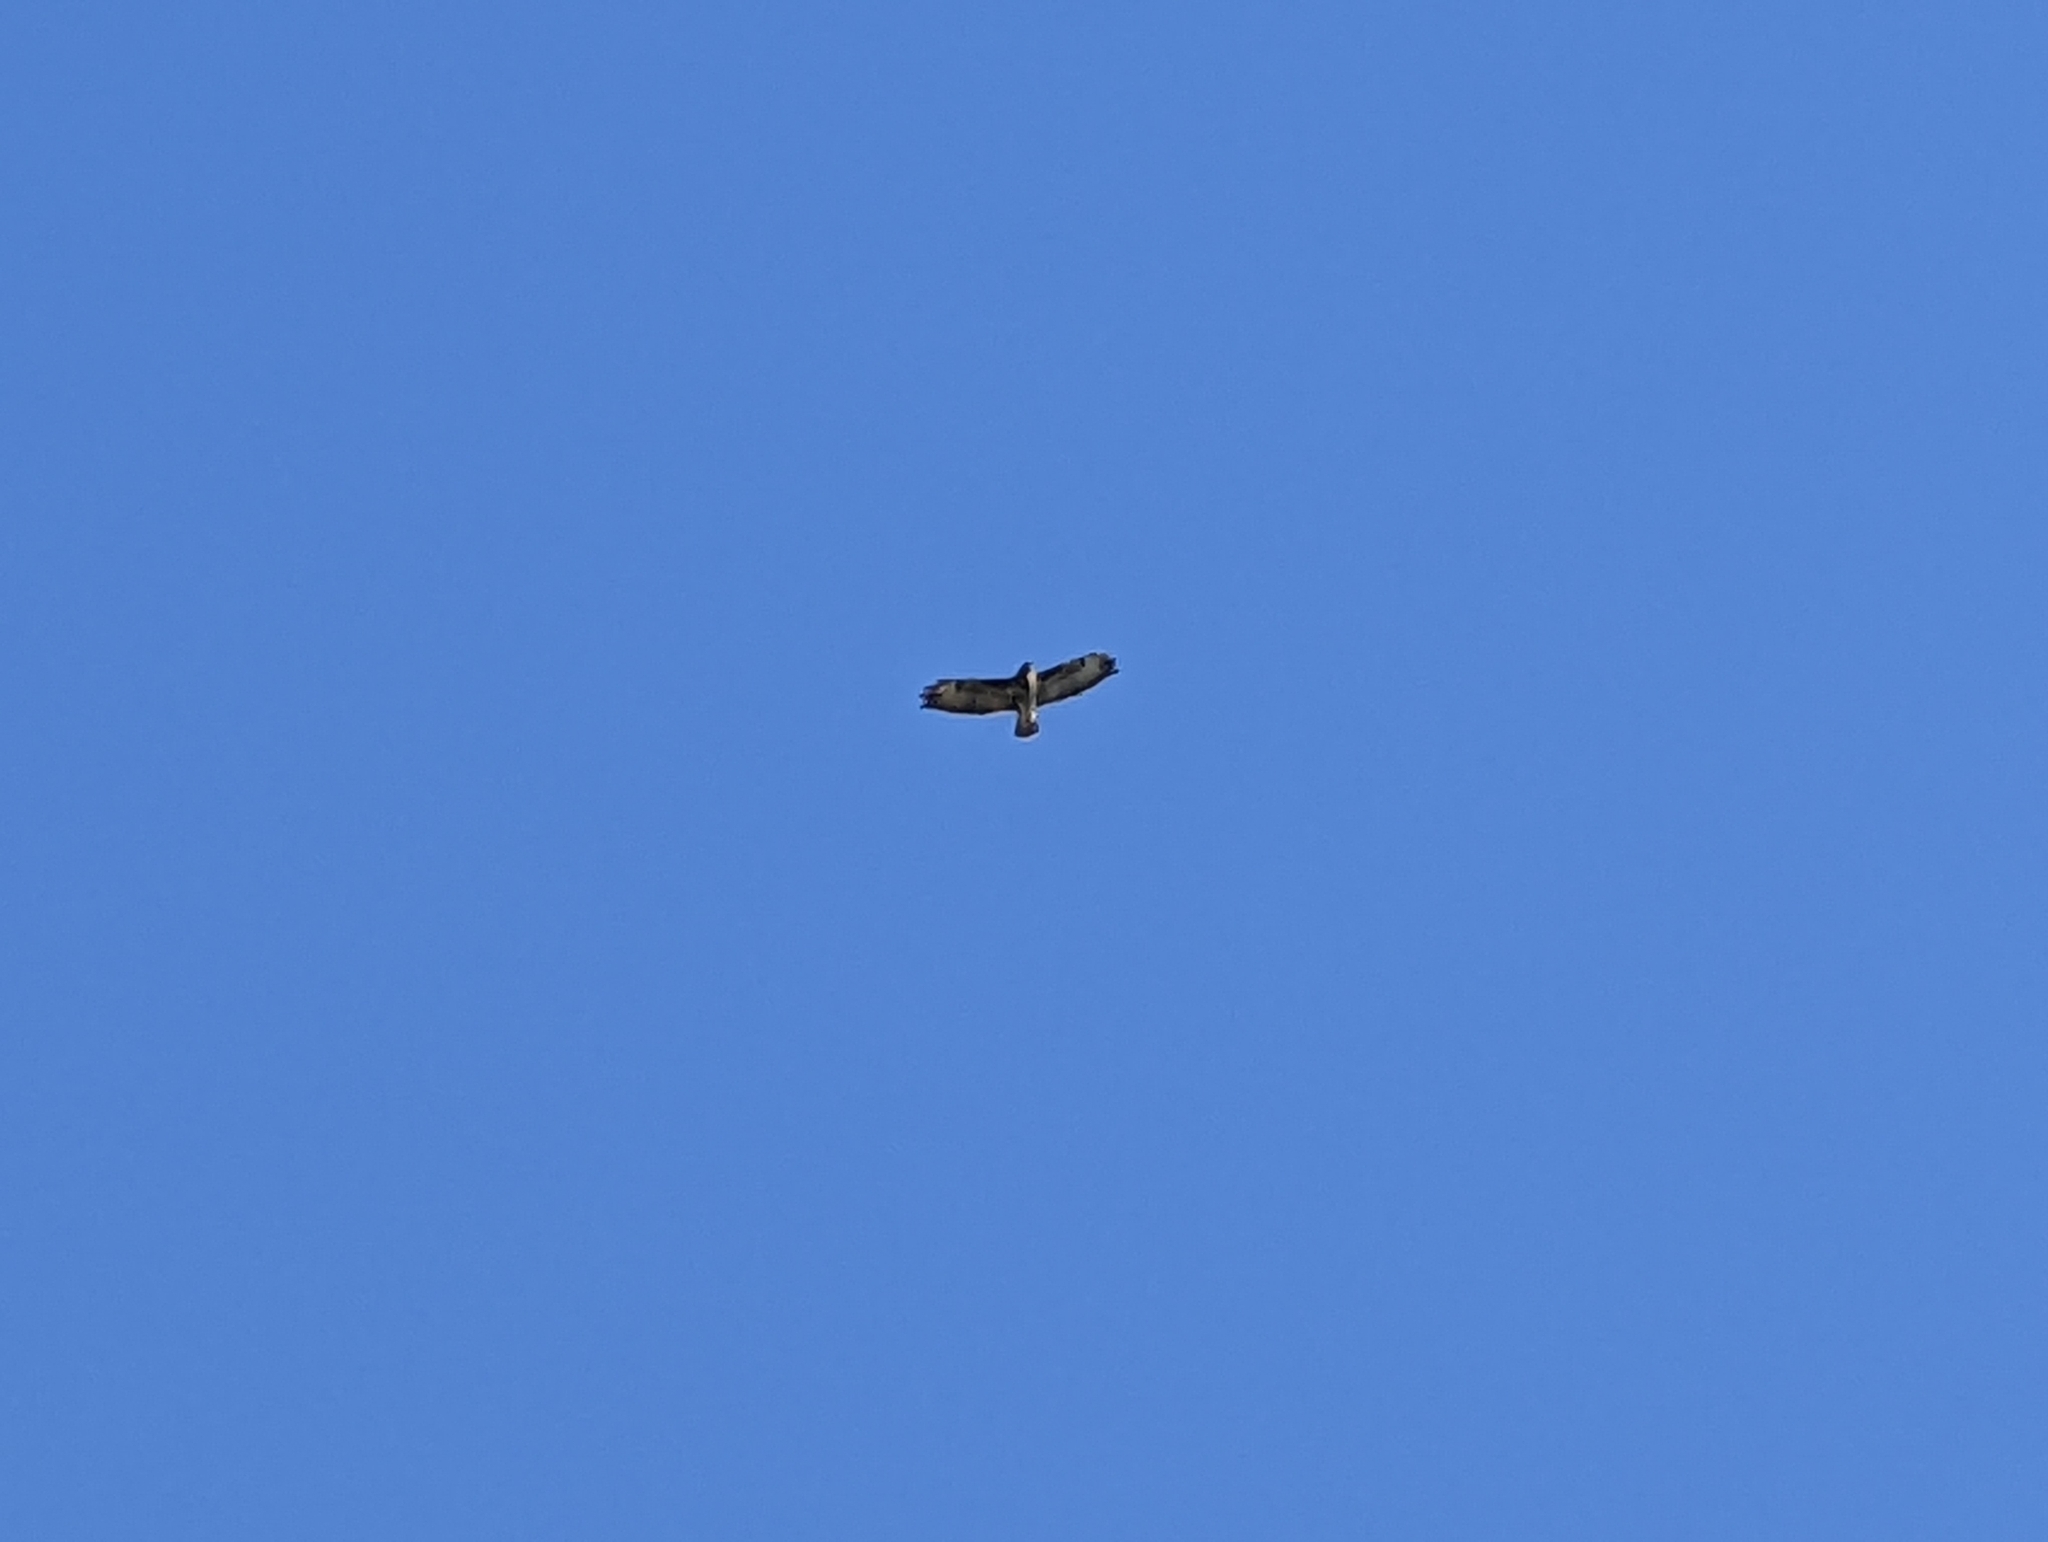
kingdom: Animalia
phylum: Chordata
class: Aves
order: Accipitriformes
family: Accipitridae
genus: Buteo
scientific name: Buteo buteo
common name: Common buzzard
